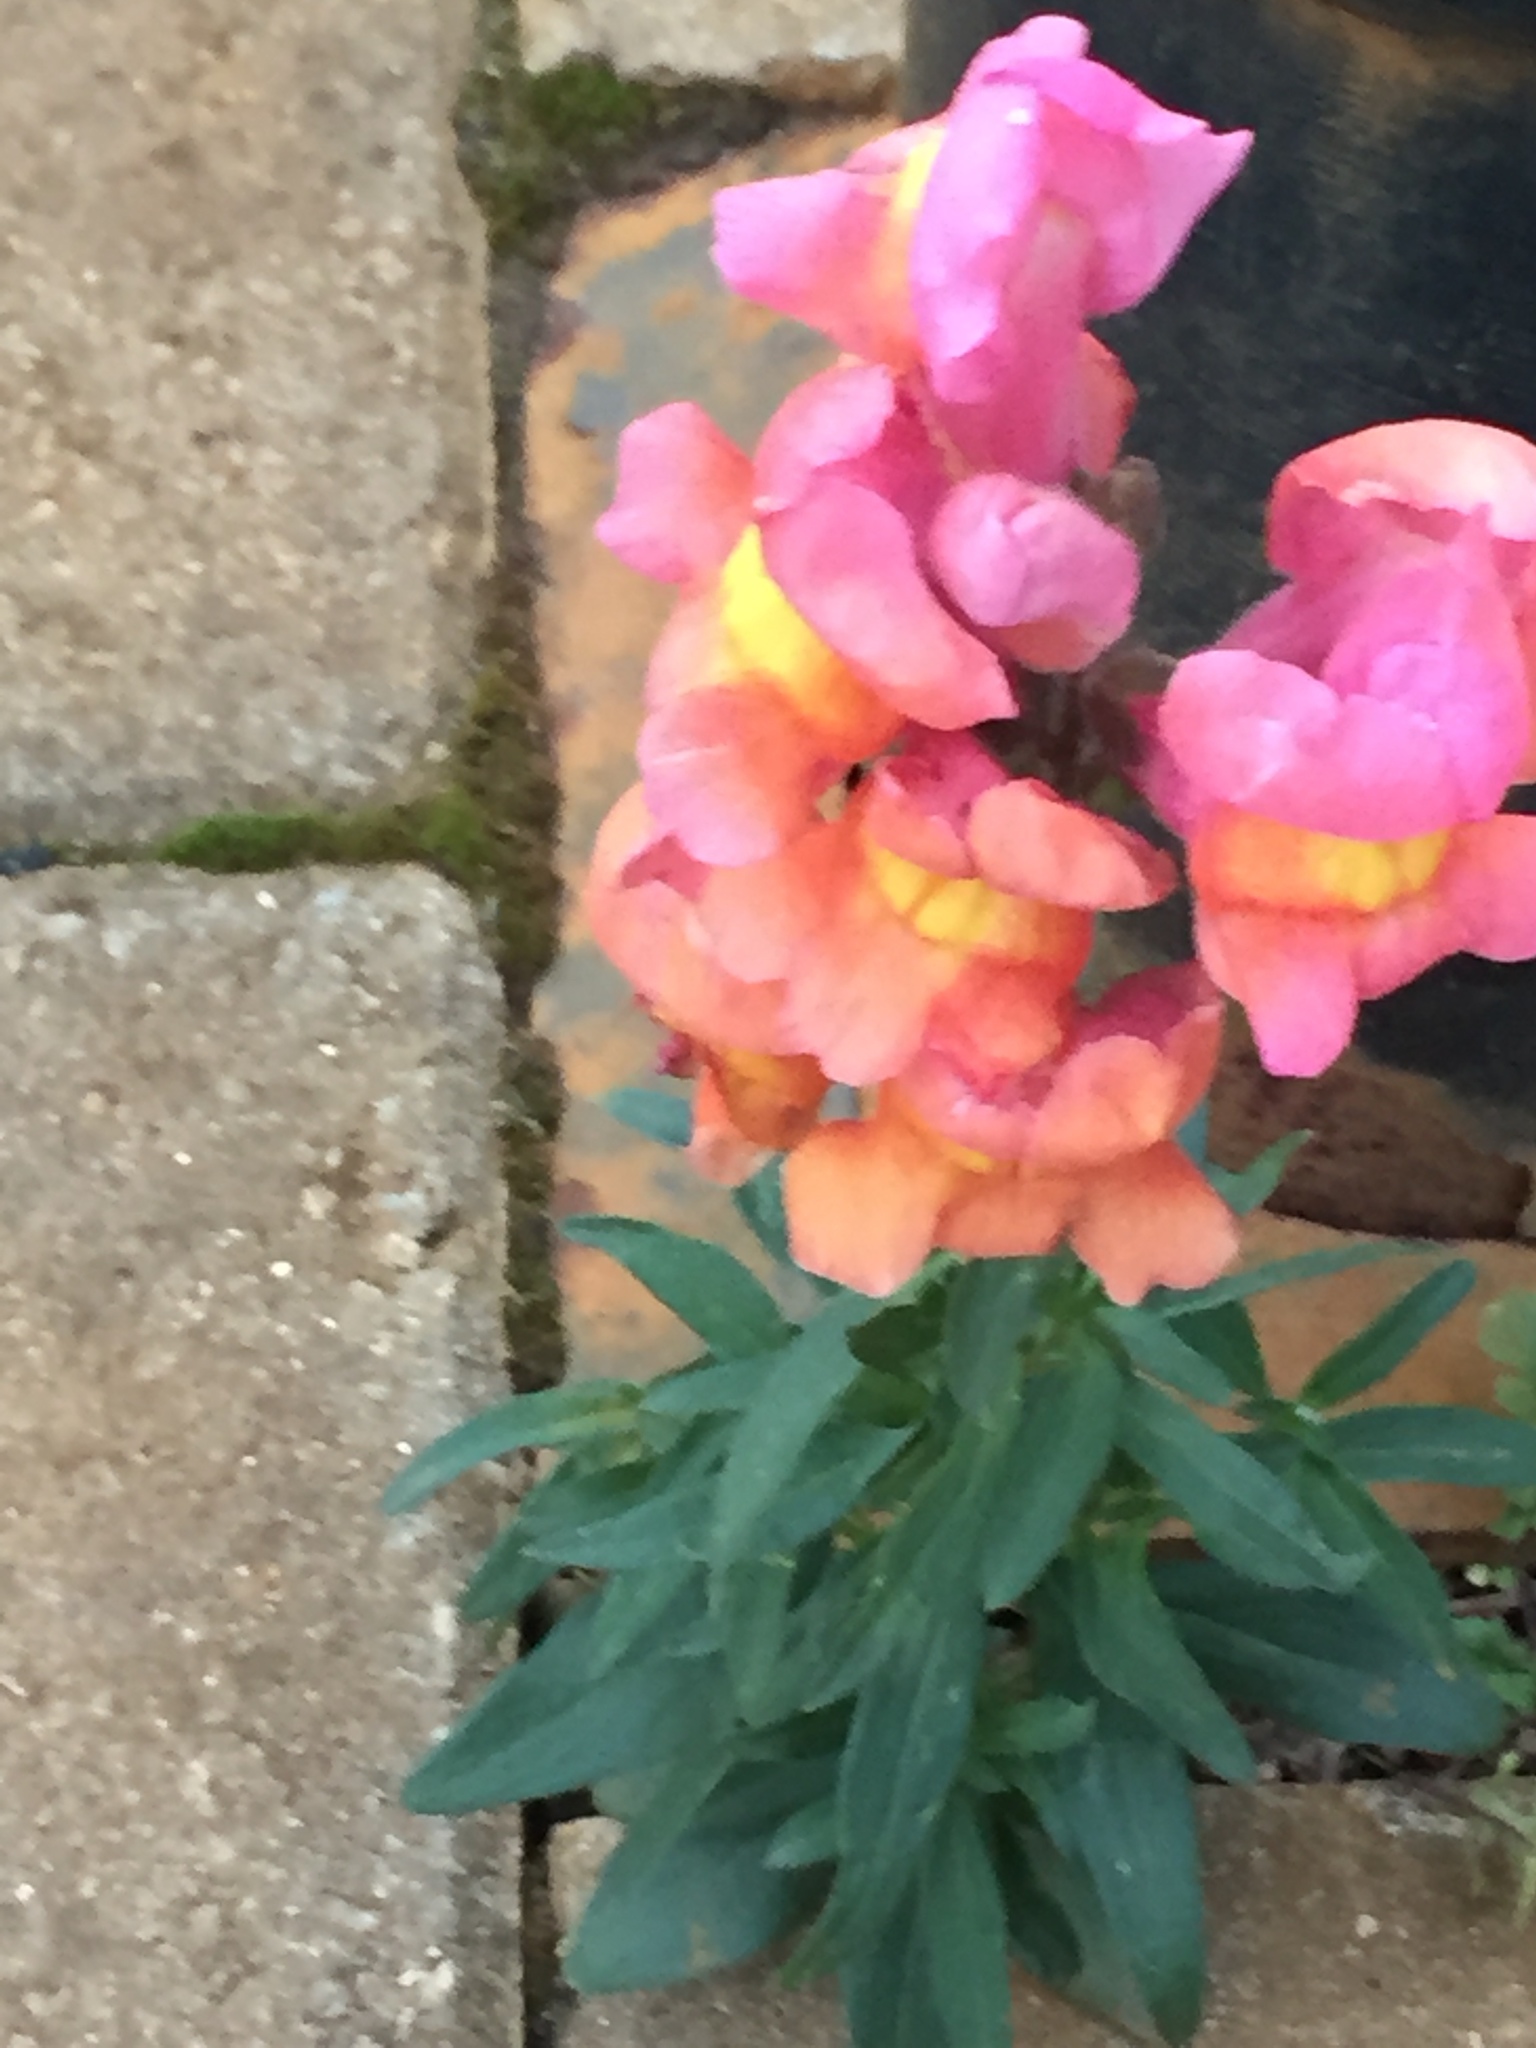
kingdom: Plantae
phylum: Tracheophyta
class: Magnoliopsida
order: Lamiales
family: Plantaginaceae
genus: Antirrhinum
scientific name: Antirrhinum majus
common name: Snapdragon
